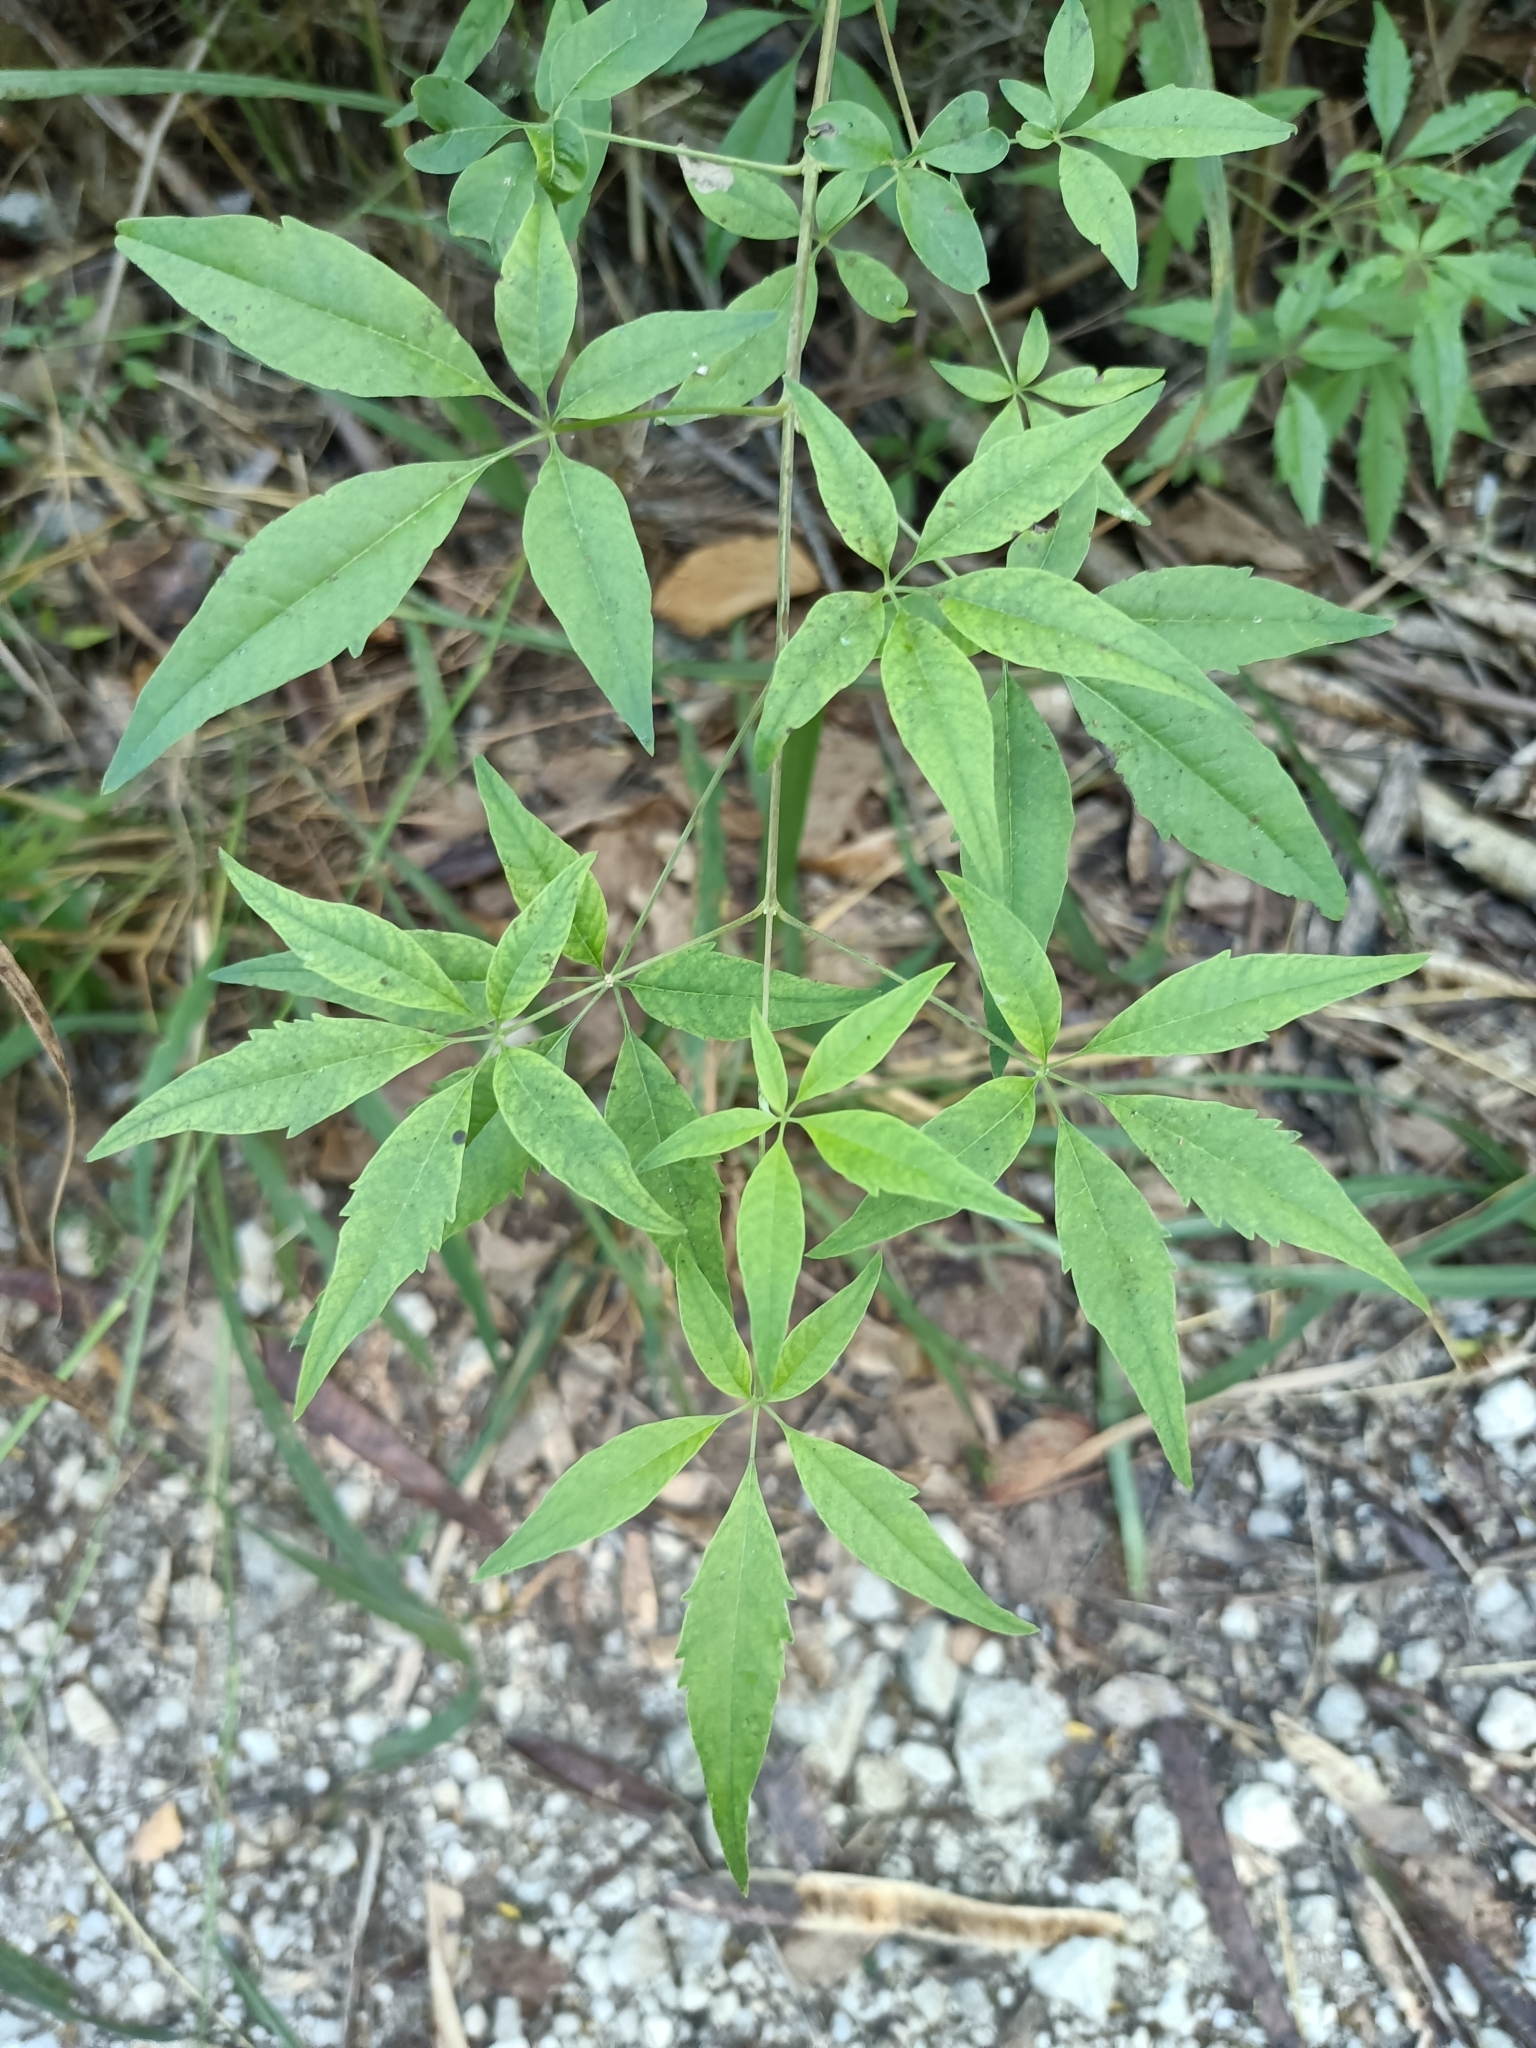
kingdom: Plantae
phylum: Tracheophyta
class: Magnoliopsida
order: Lamiales
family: Lamiaceae
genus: Vitex
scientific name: Vitex negundo
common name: Chinese chastetree
